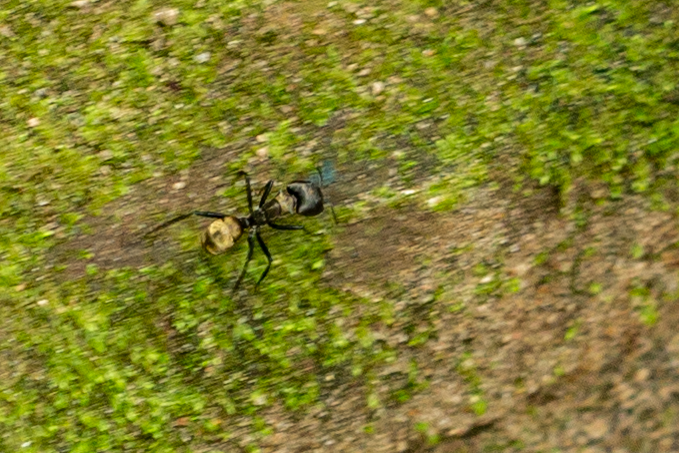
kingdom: Animalia
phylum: Arthropoda
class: Insecta
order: Hymenoptera
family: Formicidae
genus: Camponotus
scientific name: Camponotus sericeiventris
